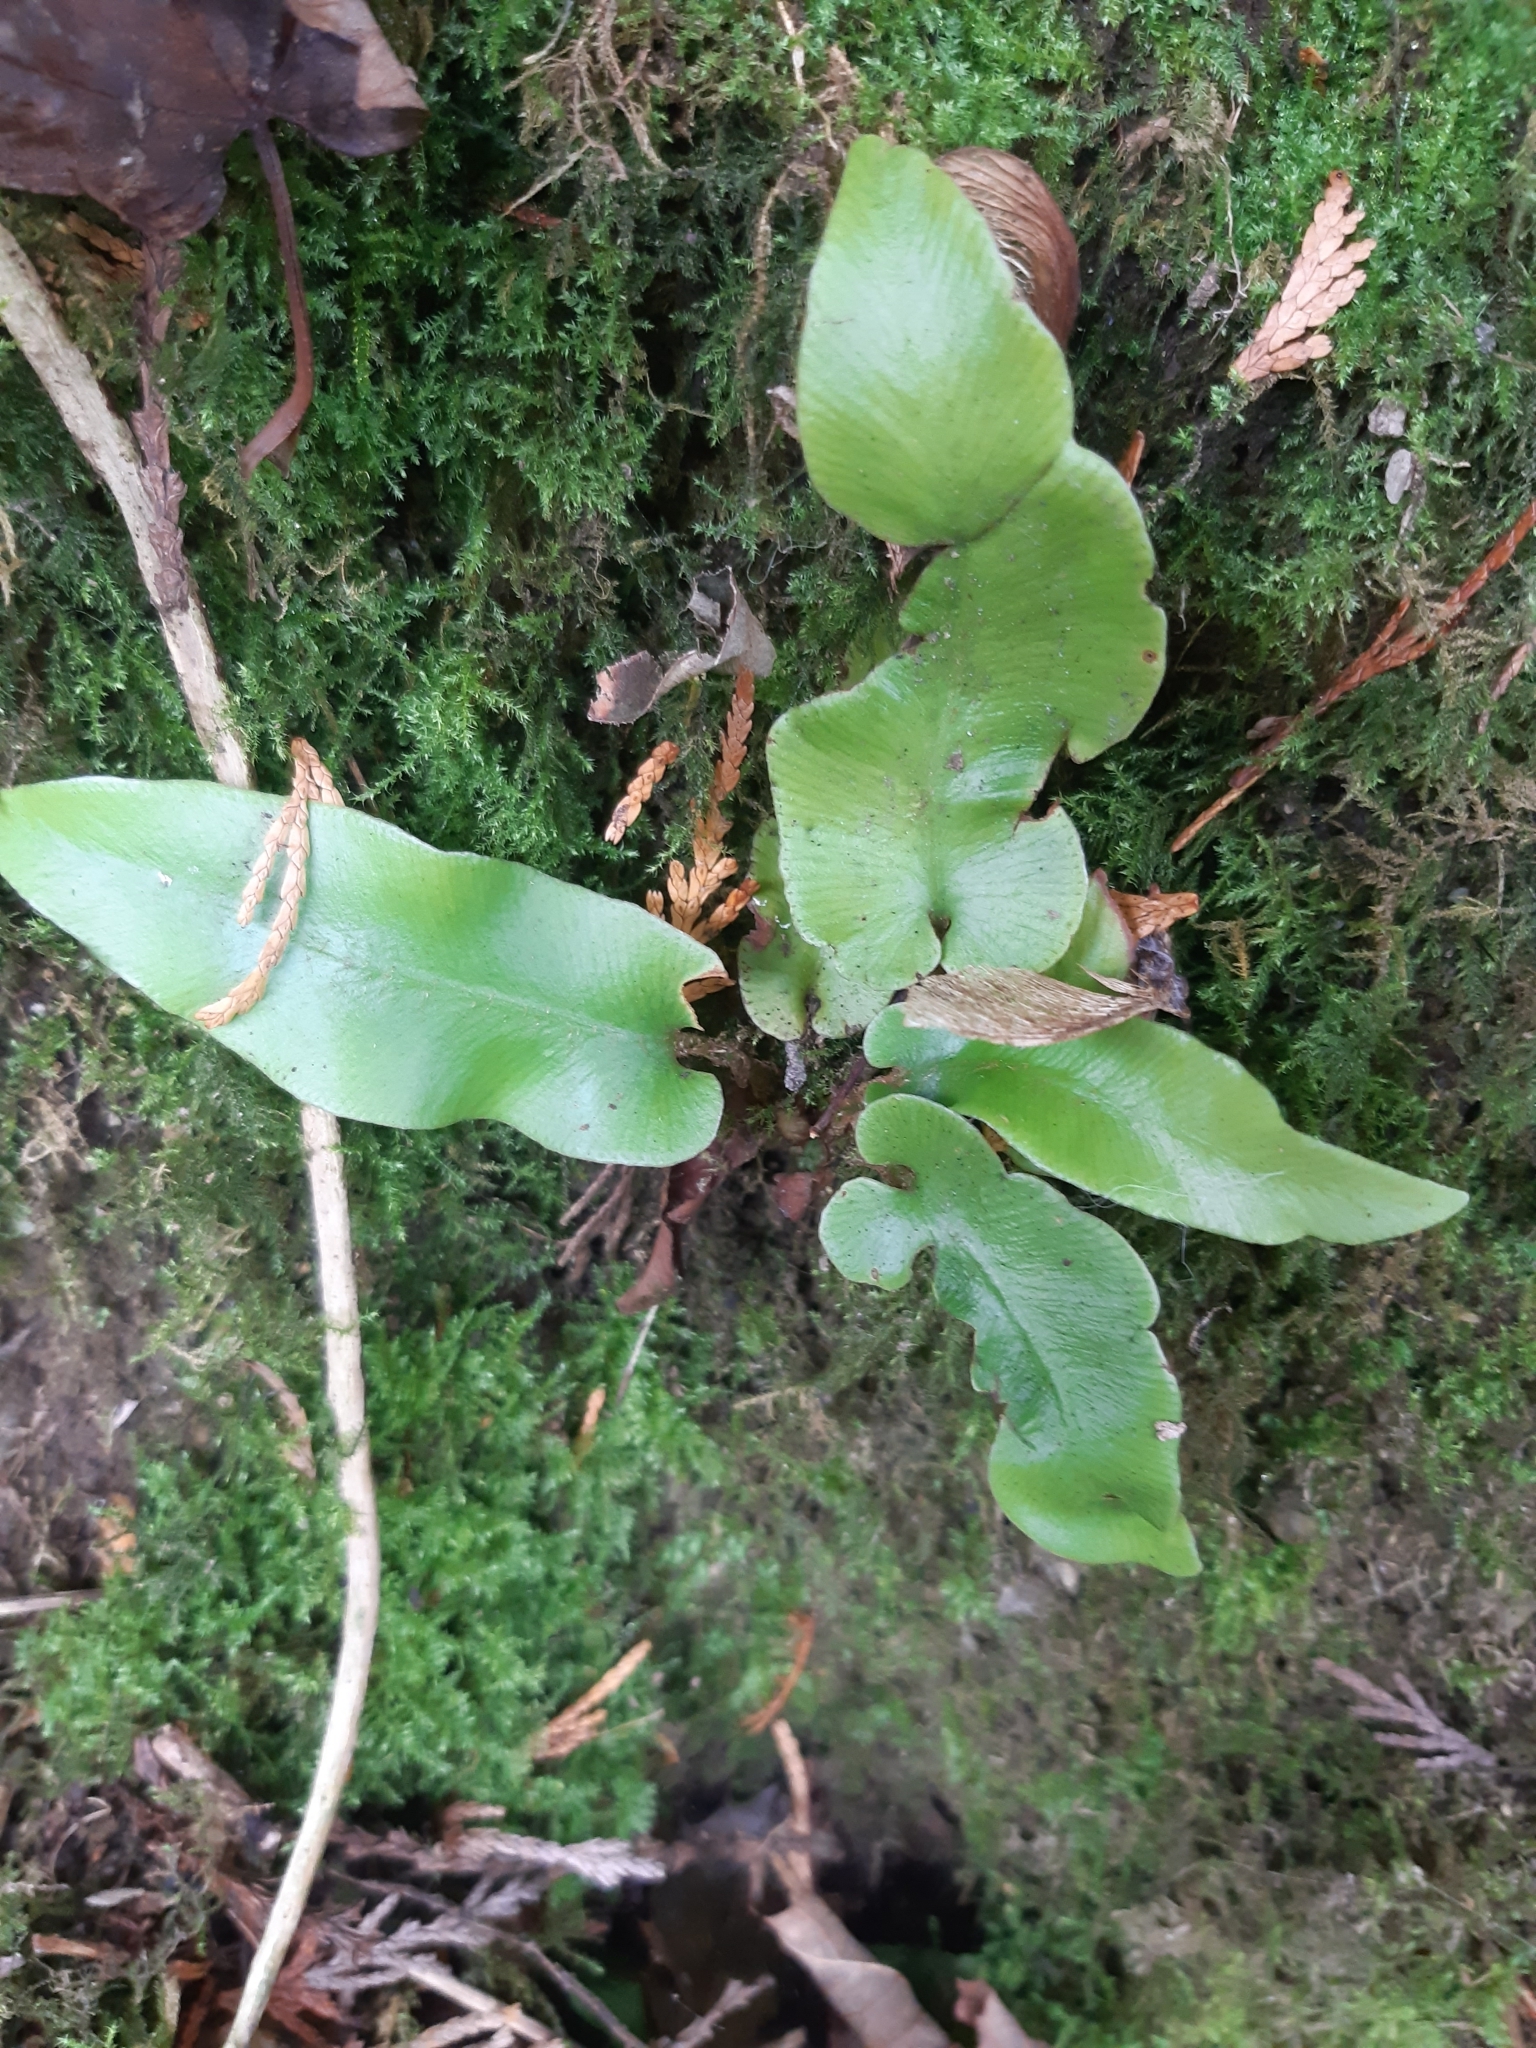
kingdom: Plantae
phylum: Tracheophyta
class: Polypodiopsida
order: Polypodiales
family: Aspleniaceae
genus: Asplenium
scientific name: Asplenium scolopendrium
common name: Hart's-tongue fern
